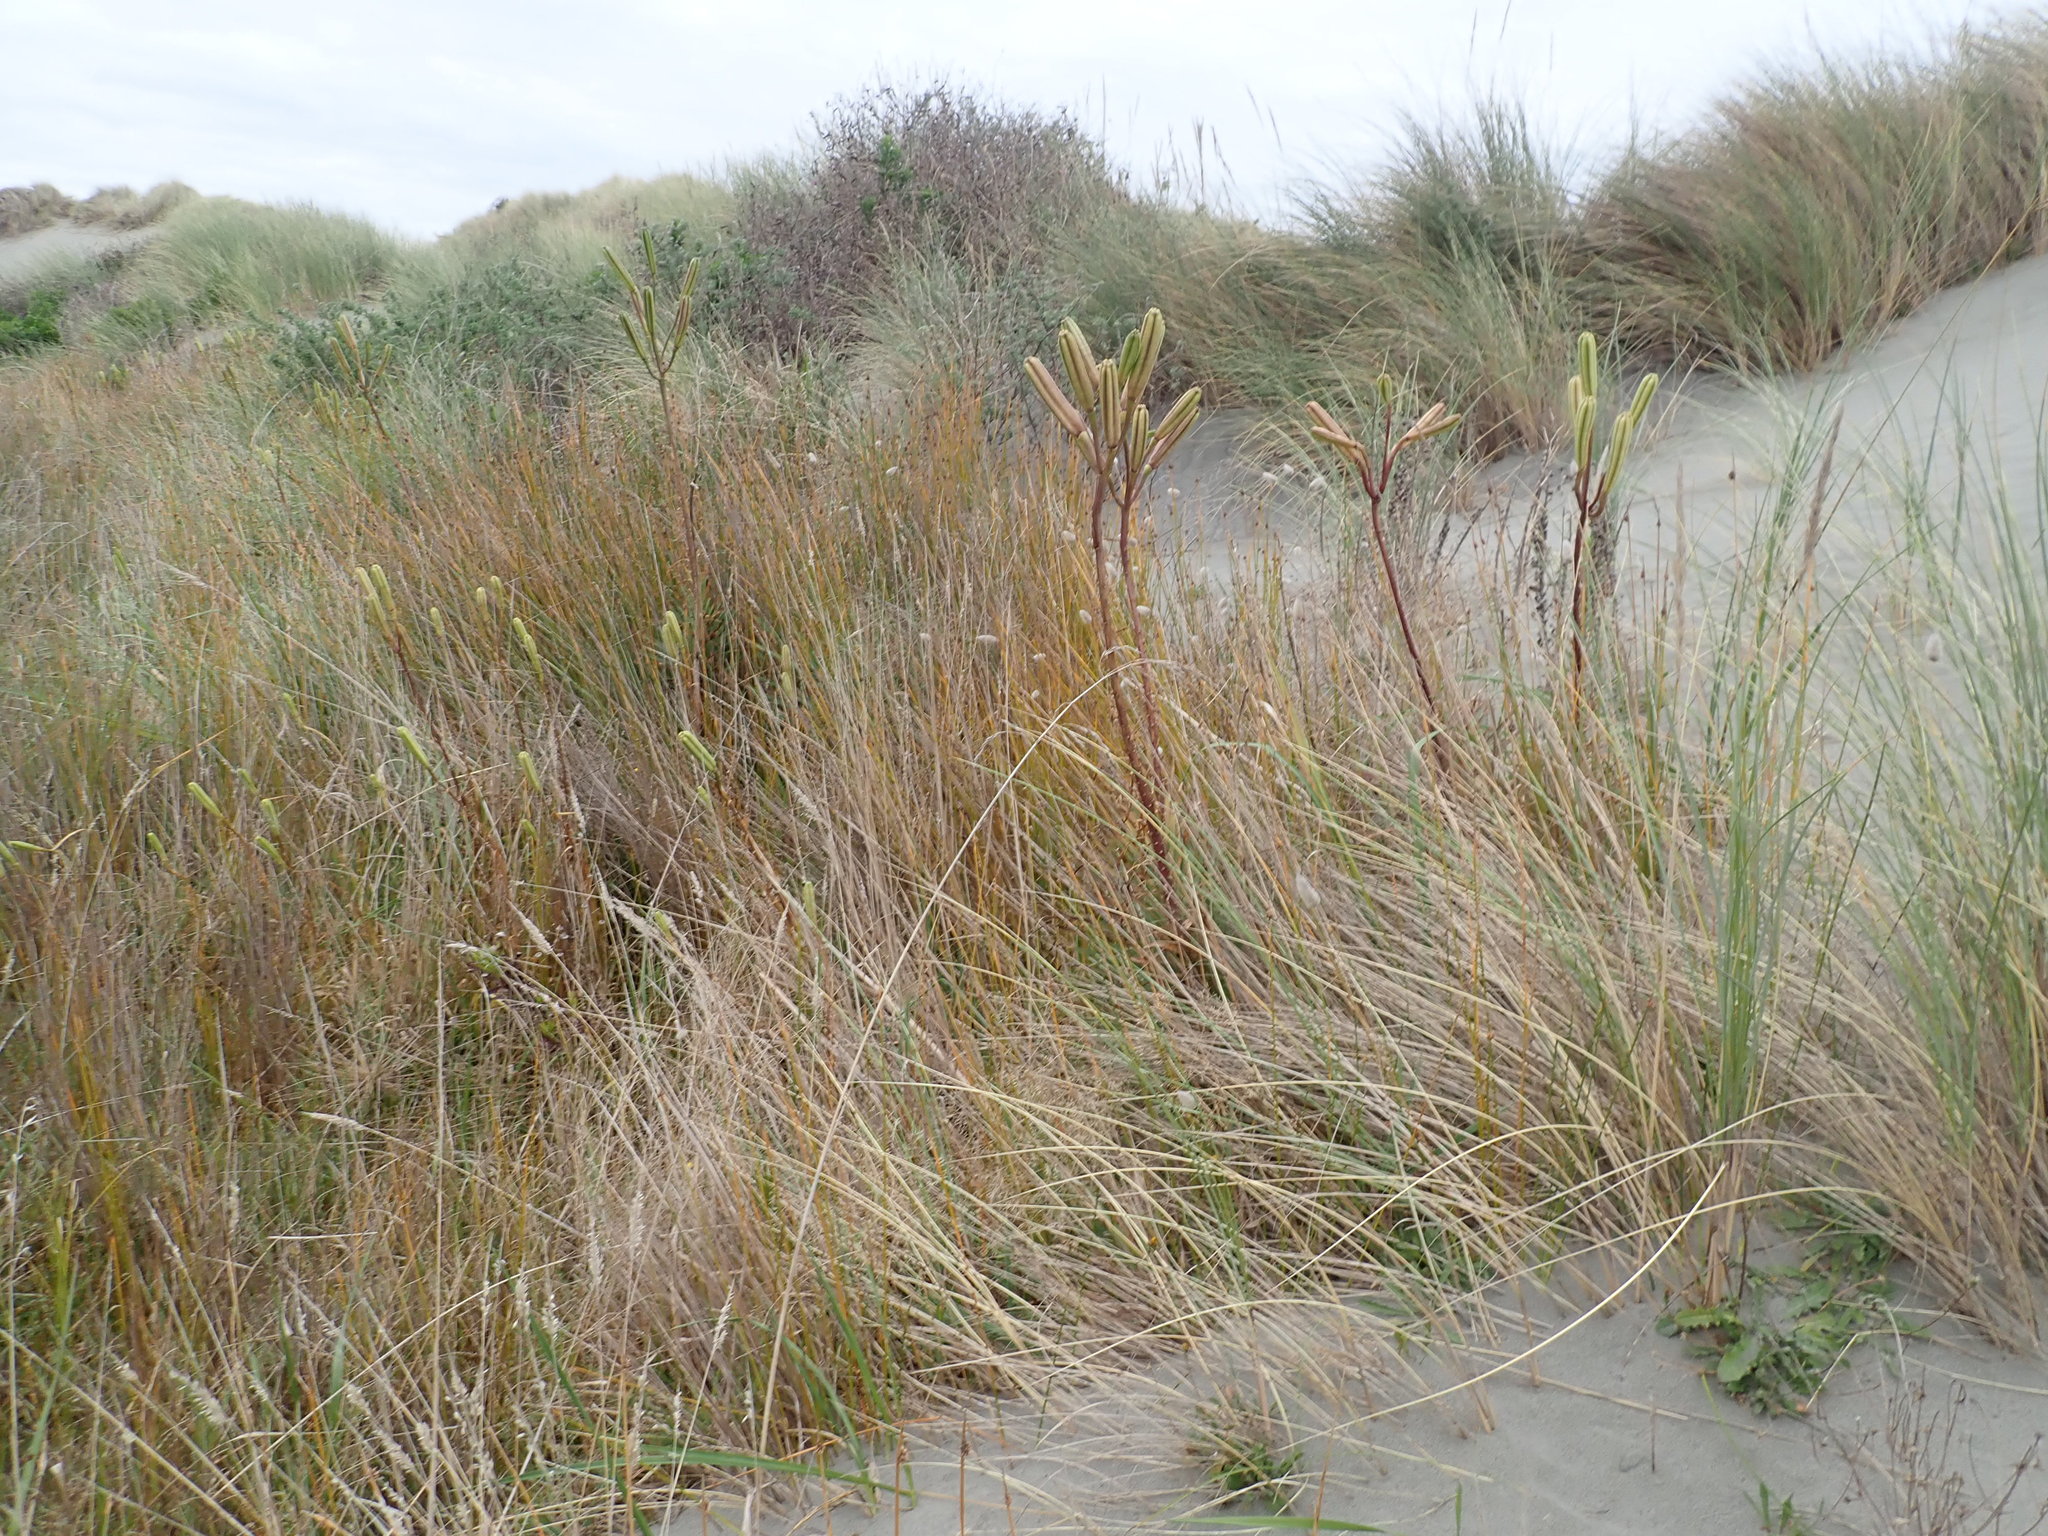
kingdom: Plantae
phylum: Tracheophyta
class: Liliopsida
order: Liliales
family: Liliaceae
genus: Lilium
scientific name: Lilium formosanum
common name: Formosa lily
